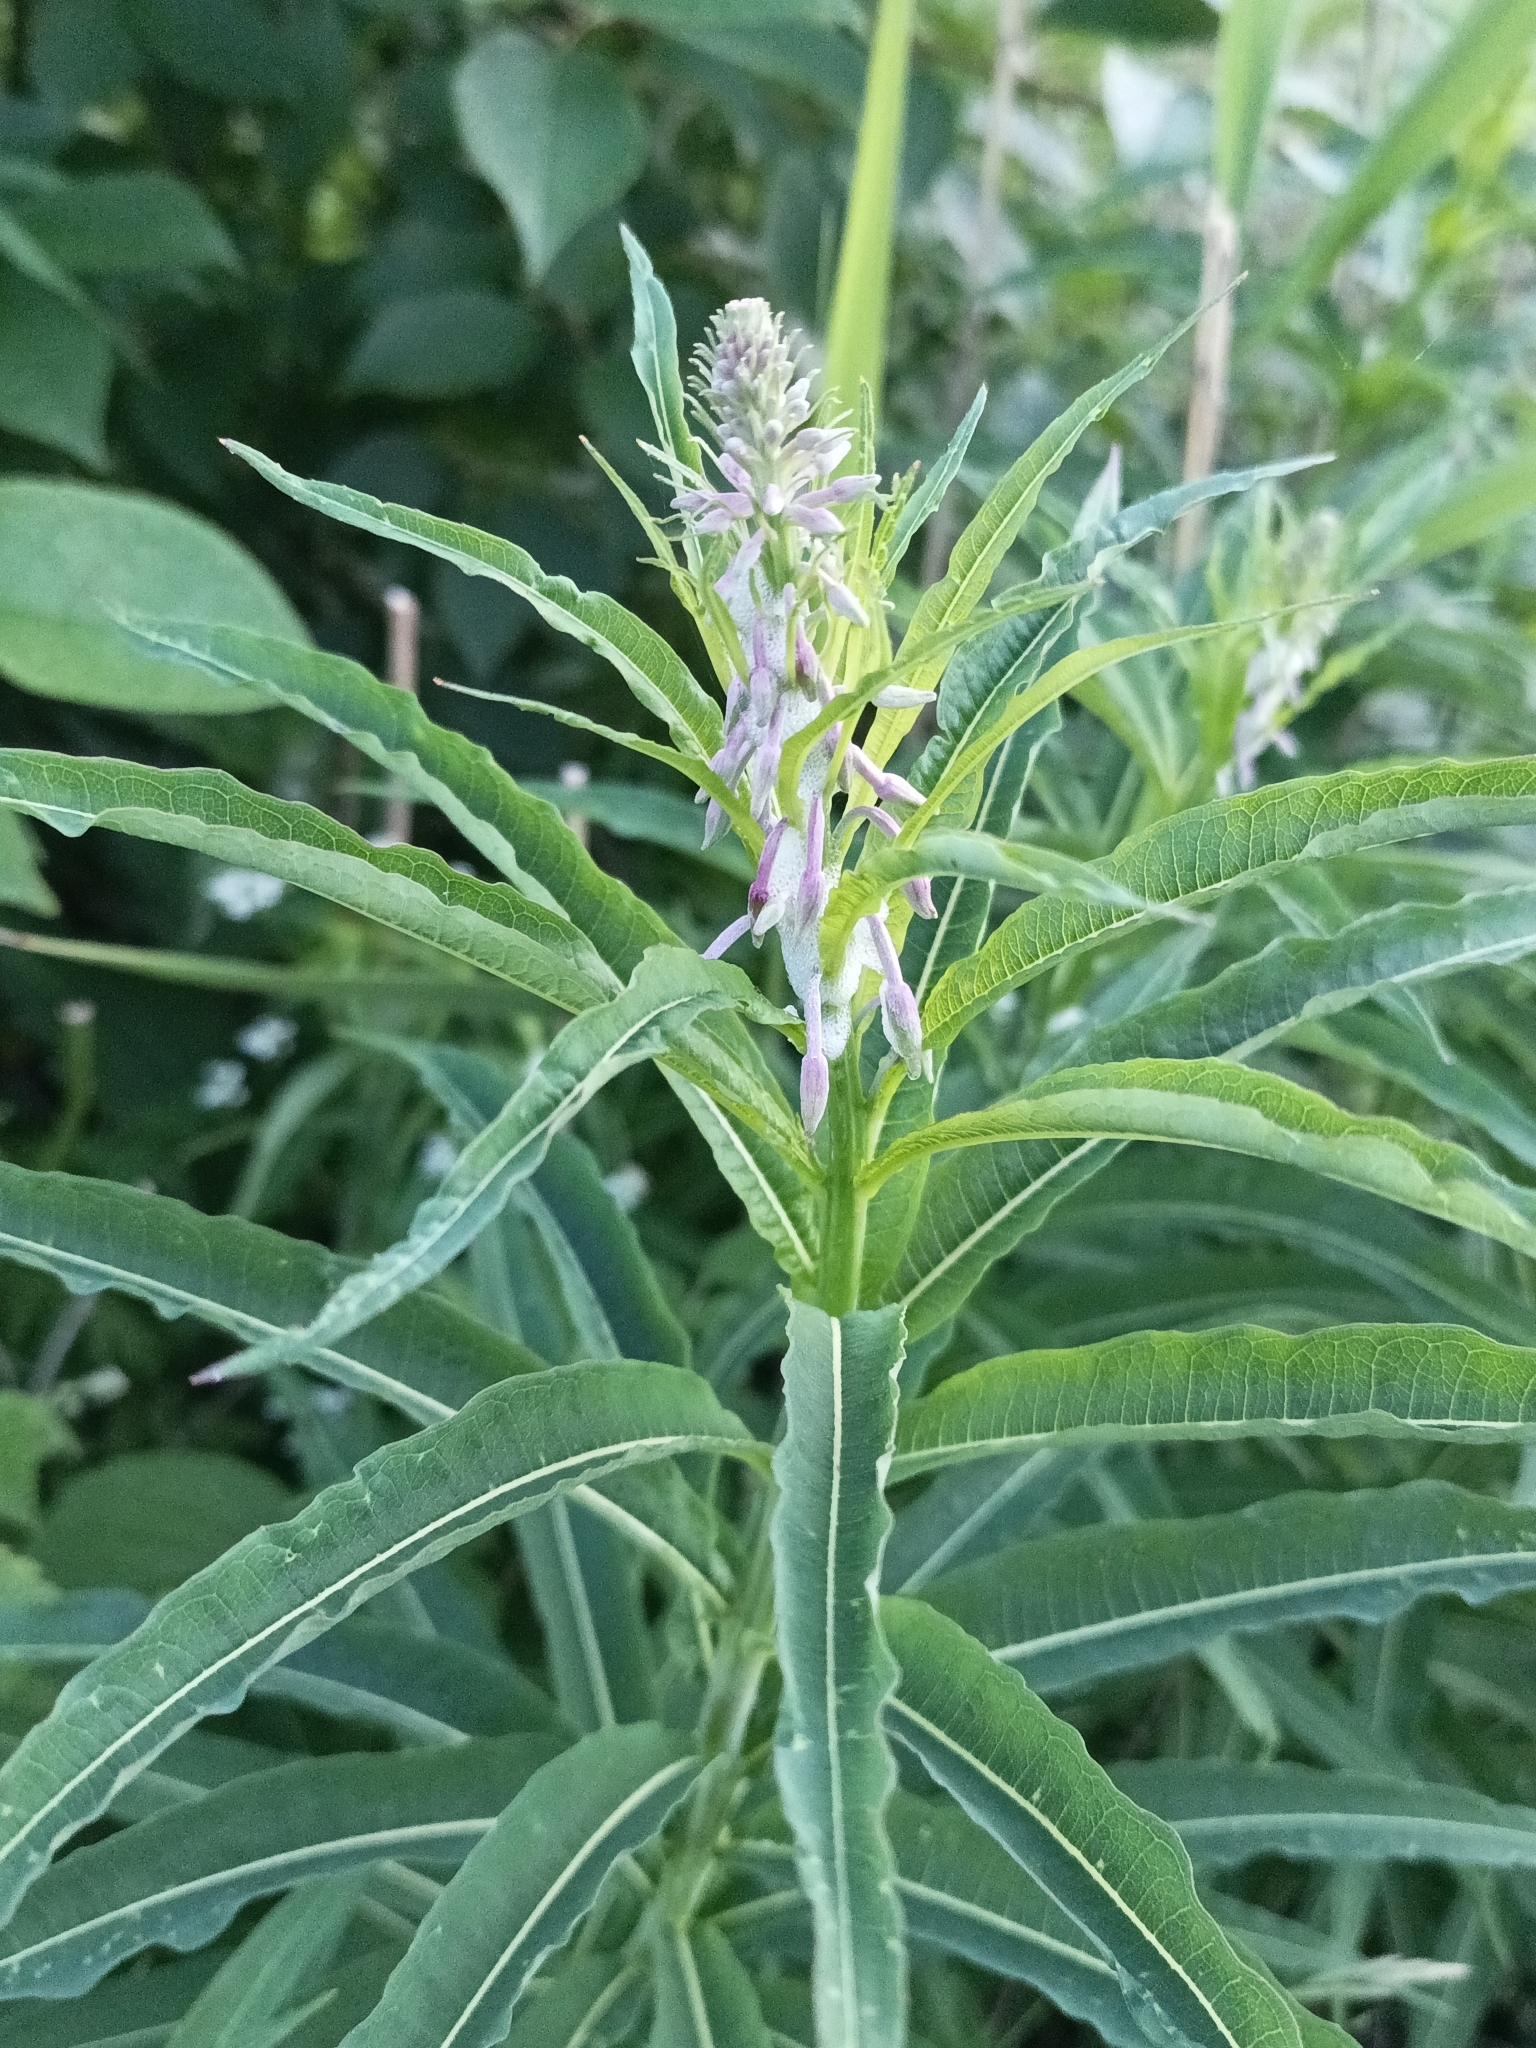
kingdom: Plantae
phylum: Tracheophyta
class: Magnoliopsida
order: Myrtales
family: Onagraceae
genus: Chamaenerion
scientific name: Chamaenerion angustifolium
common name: Fireweed
